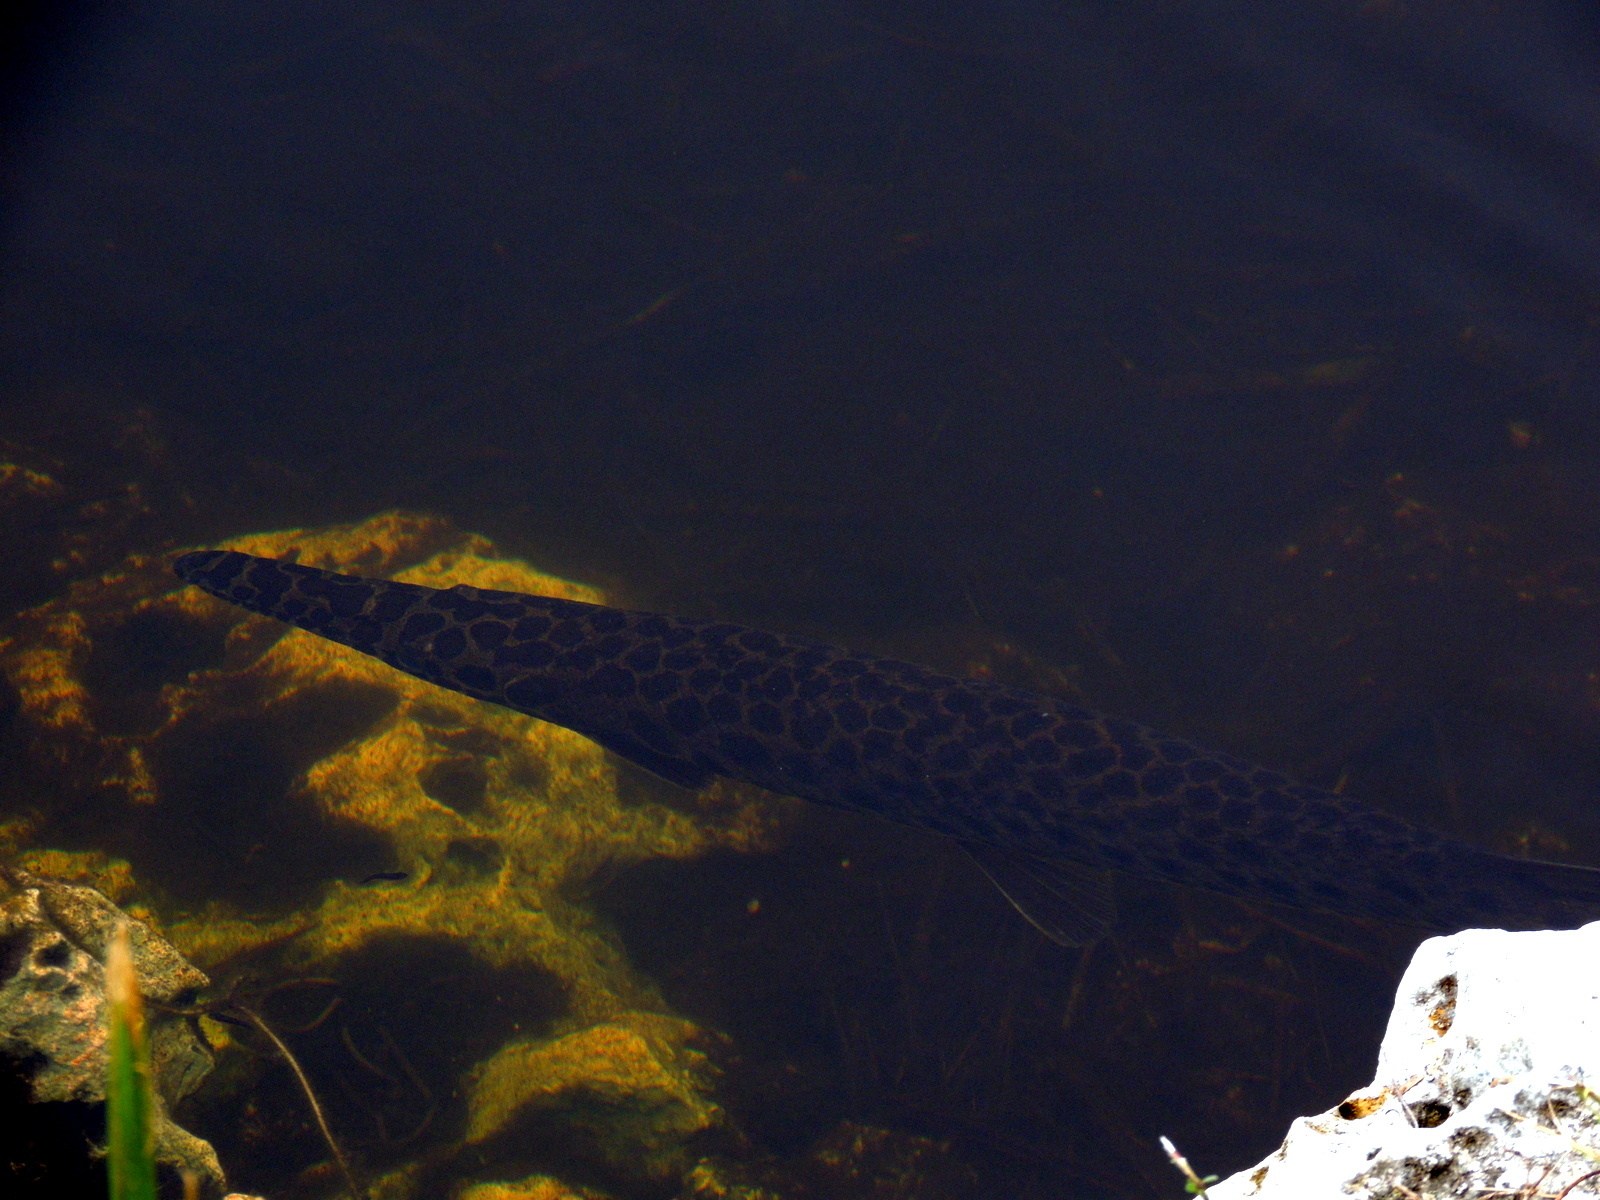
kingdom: Animalia
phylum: Chordata
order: Lepisosteiformes
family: Lepisosteidae
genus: Lepisosteus
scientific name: Lepisosteus platyrhincus
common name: Florida gar
